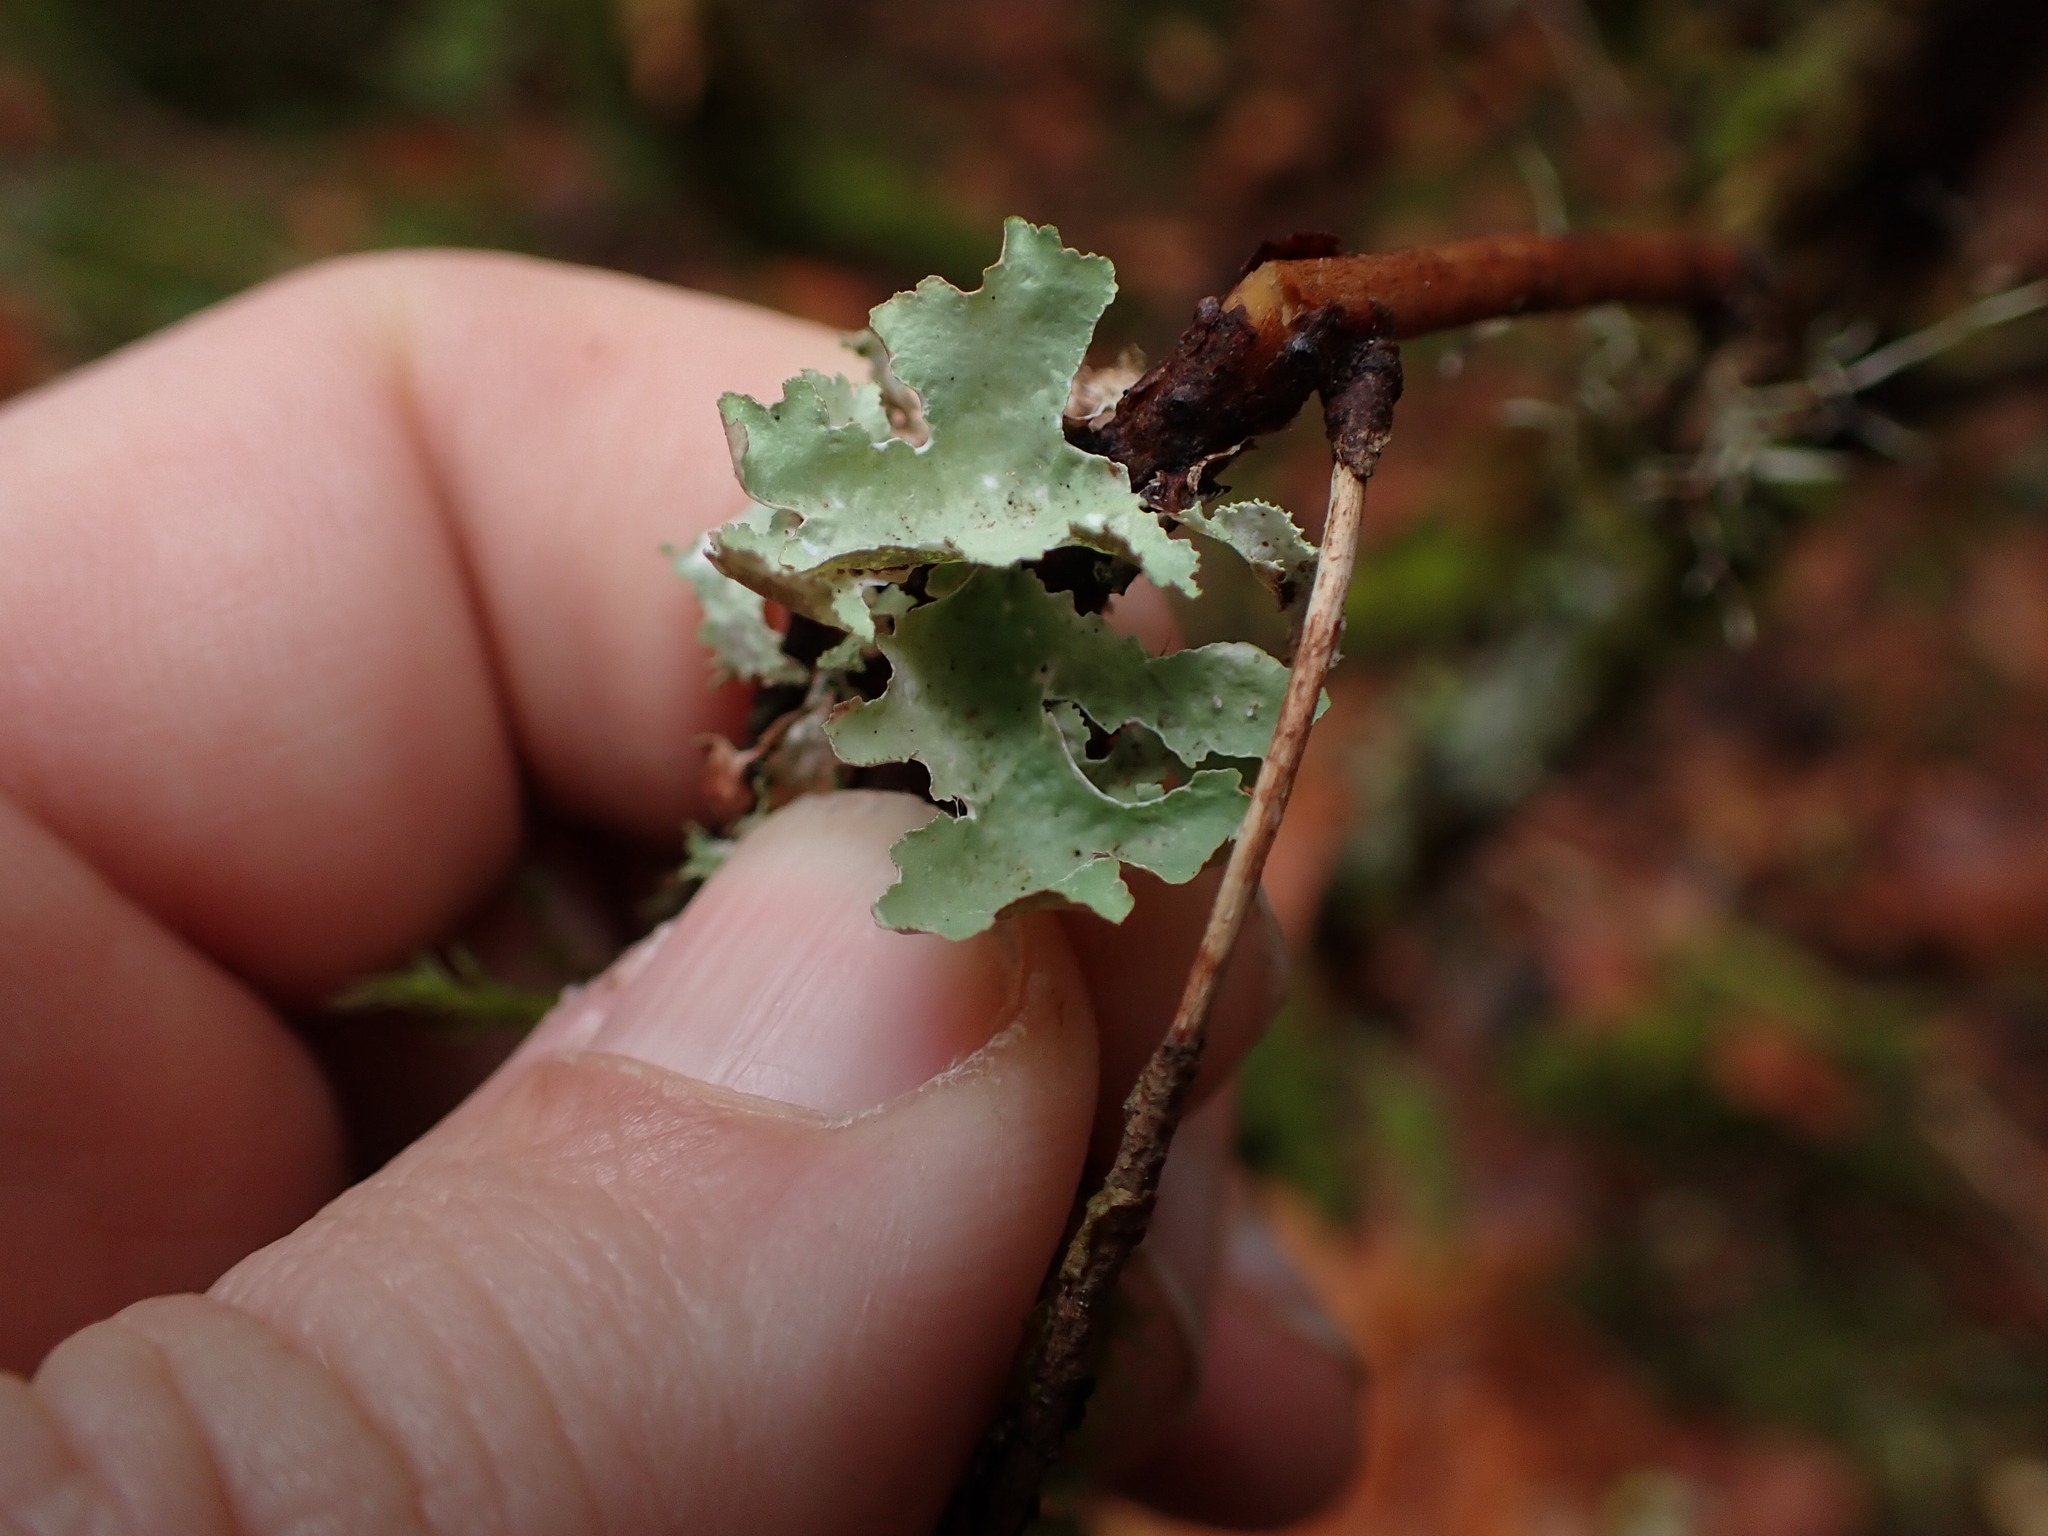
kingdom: Fungi
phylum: Ascomycota
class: Lecanoromycetes
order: Lecanorales
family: Parmeliaceae
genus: Platismatia
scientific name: Platismatia glauca
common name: Varied rag lichen
